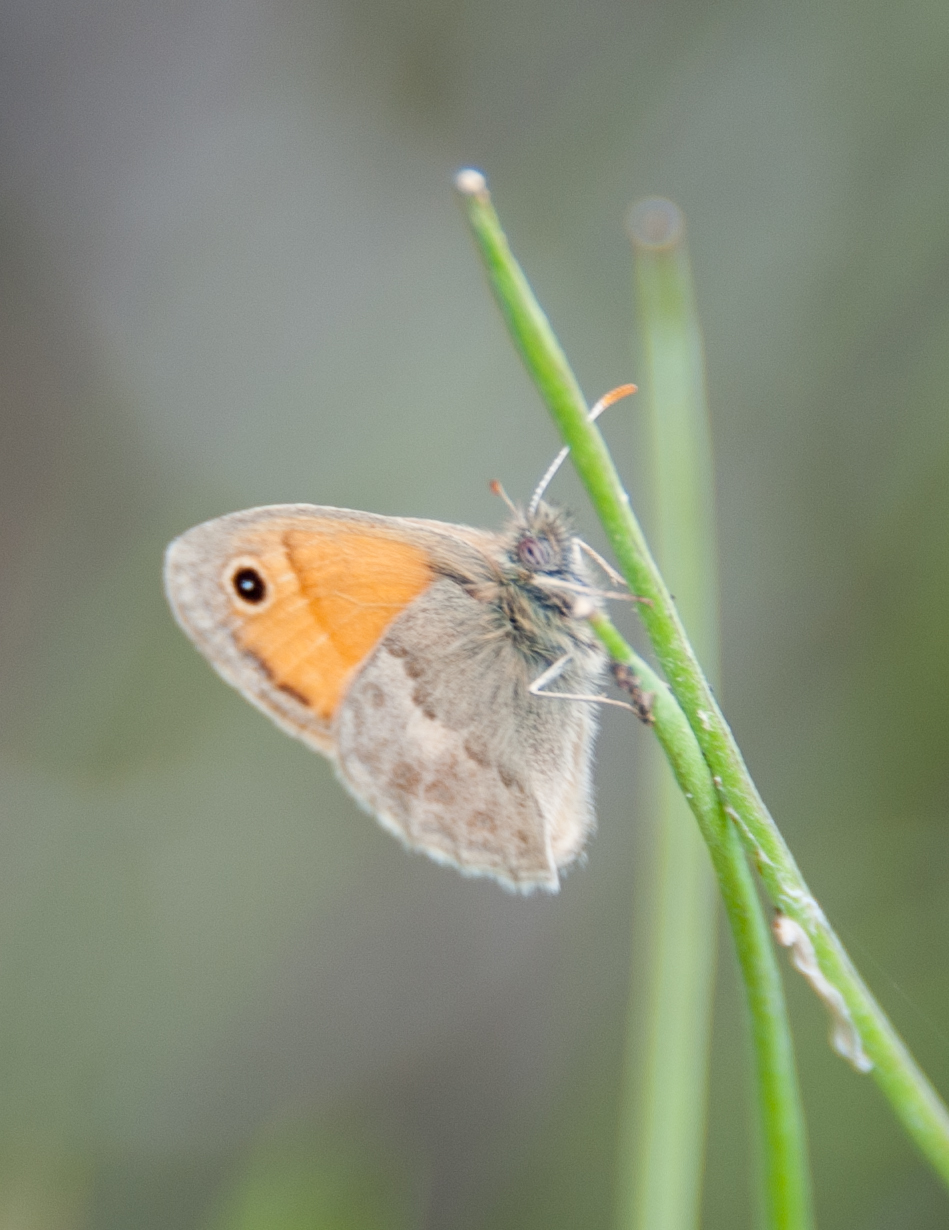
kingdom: Animalia
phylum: Arthropoda
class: Insecta
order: Lepidoptera
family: Nymphalidae
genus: Coenonympha
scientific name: Coenonympha pamphilus
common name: Small heath
